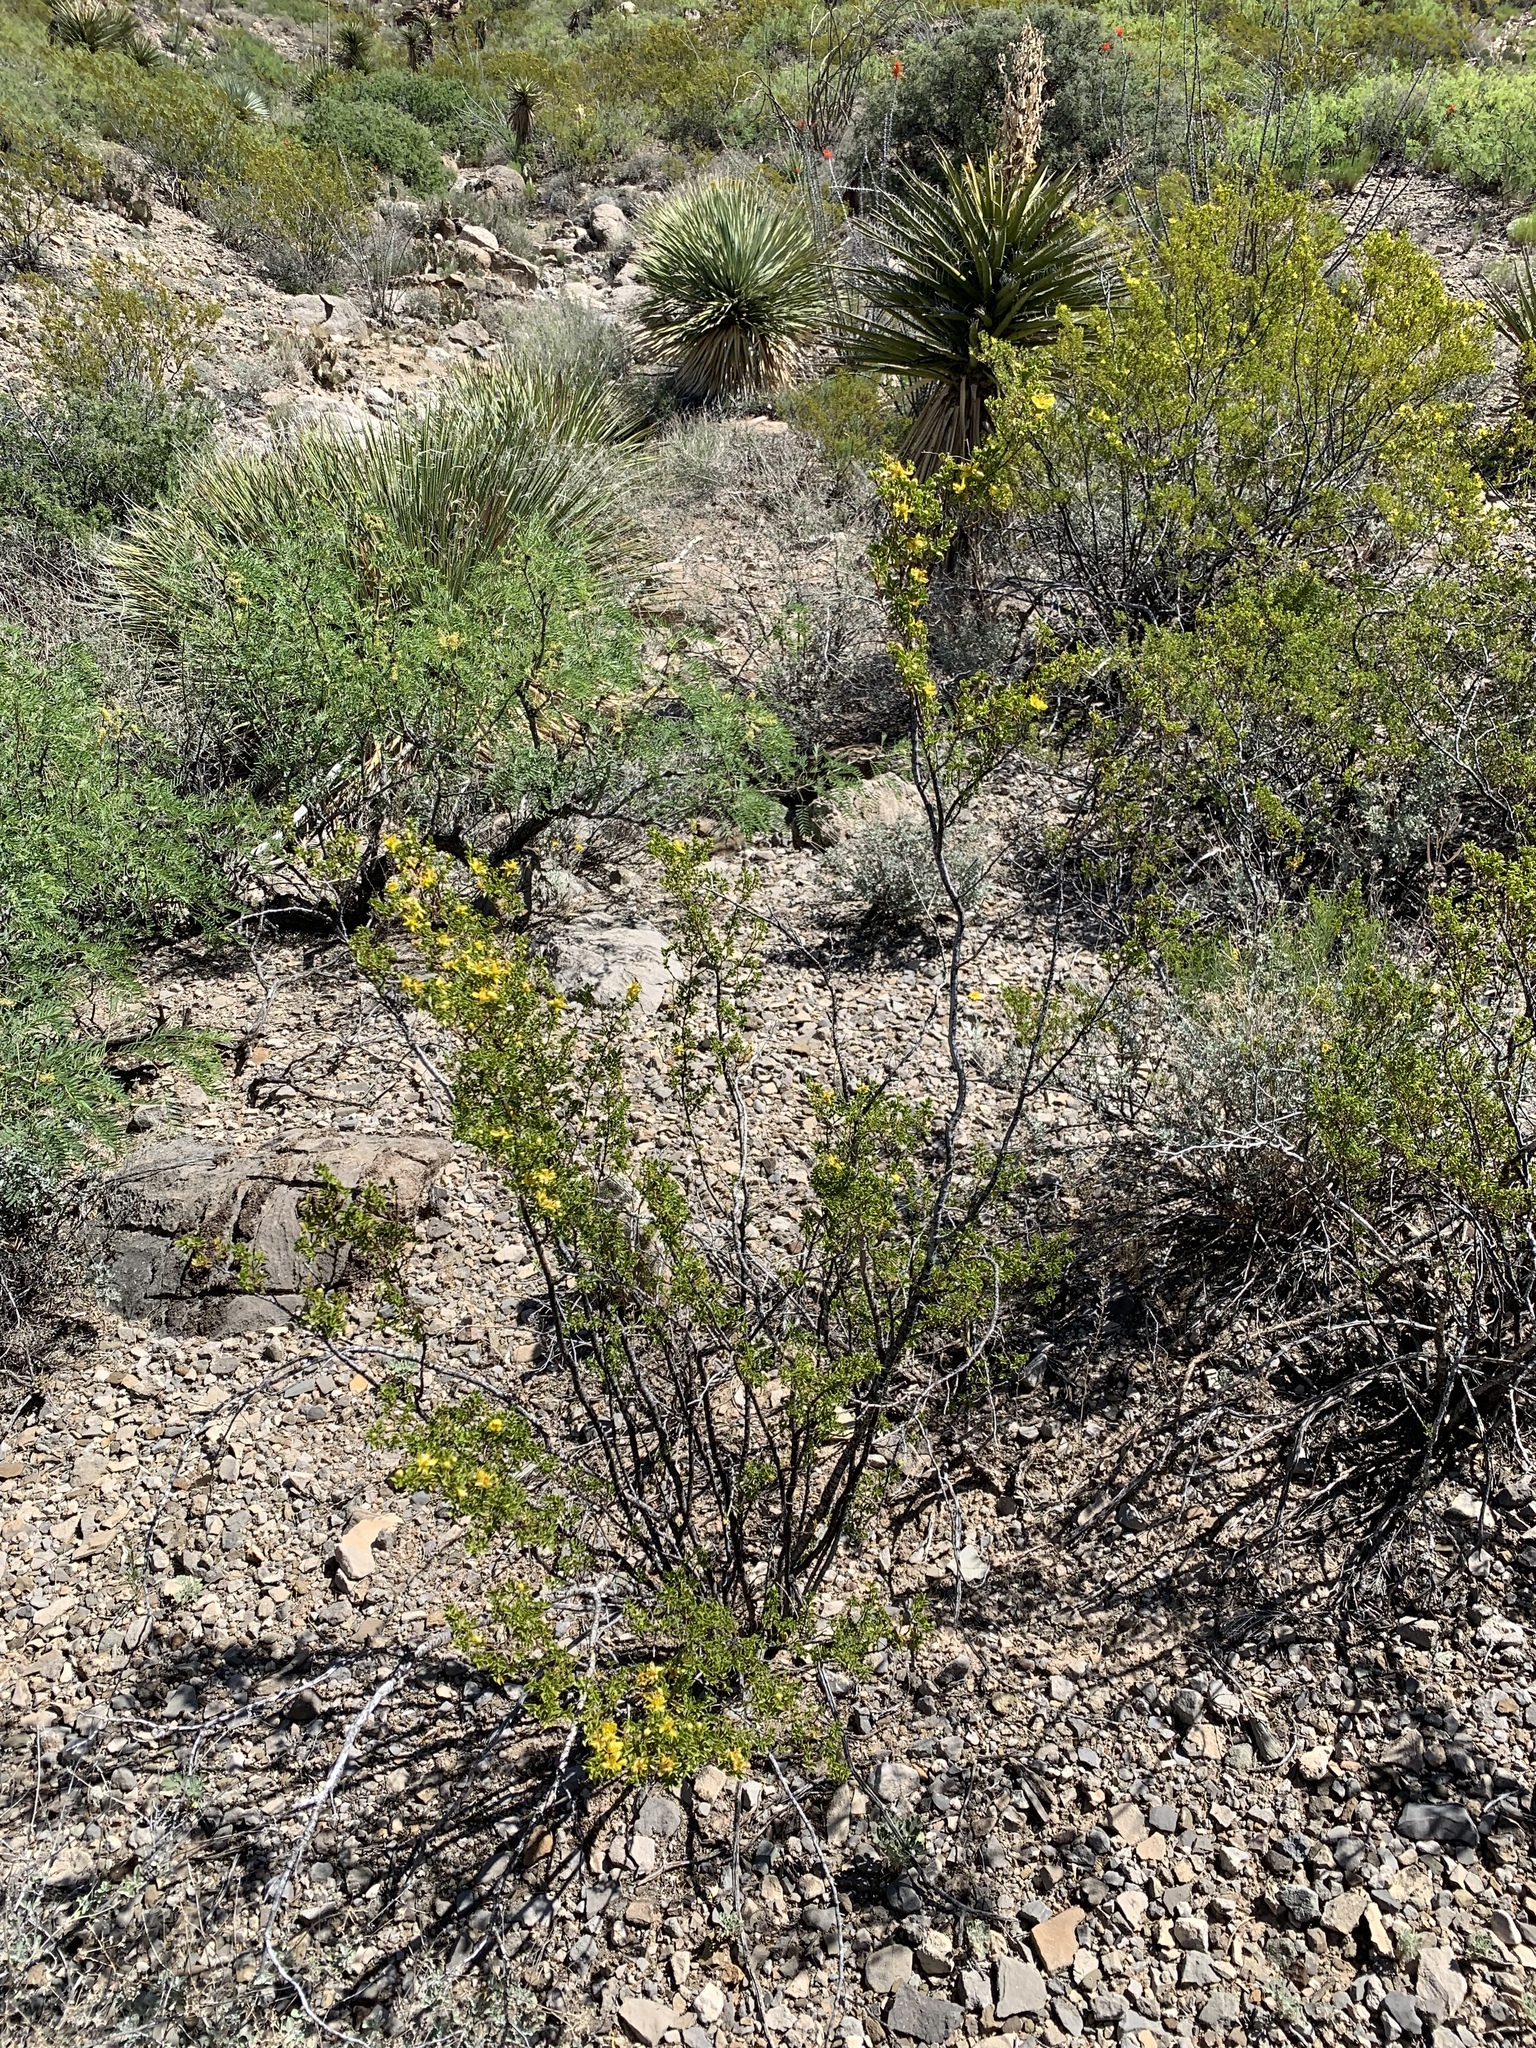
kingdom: Plantae
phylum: Tracheophyta
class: Magnoliopsida
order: Zygophyllales
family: Zygophyllaceae
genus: Larrea
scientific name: Larrea tridentata
